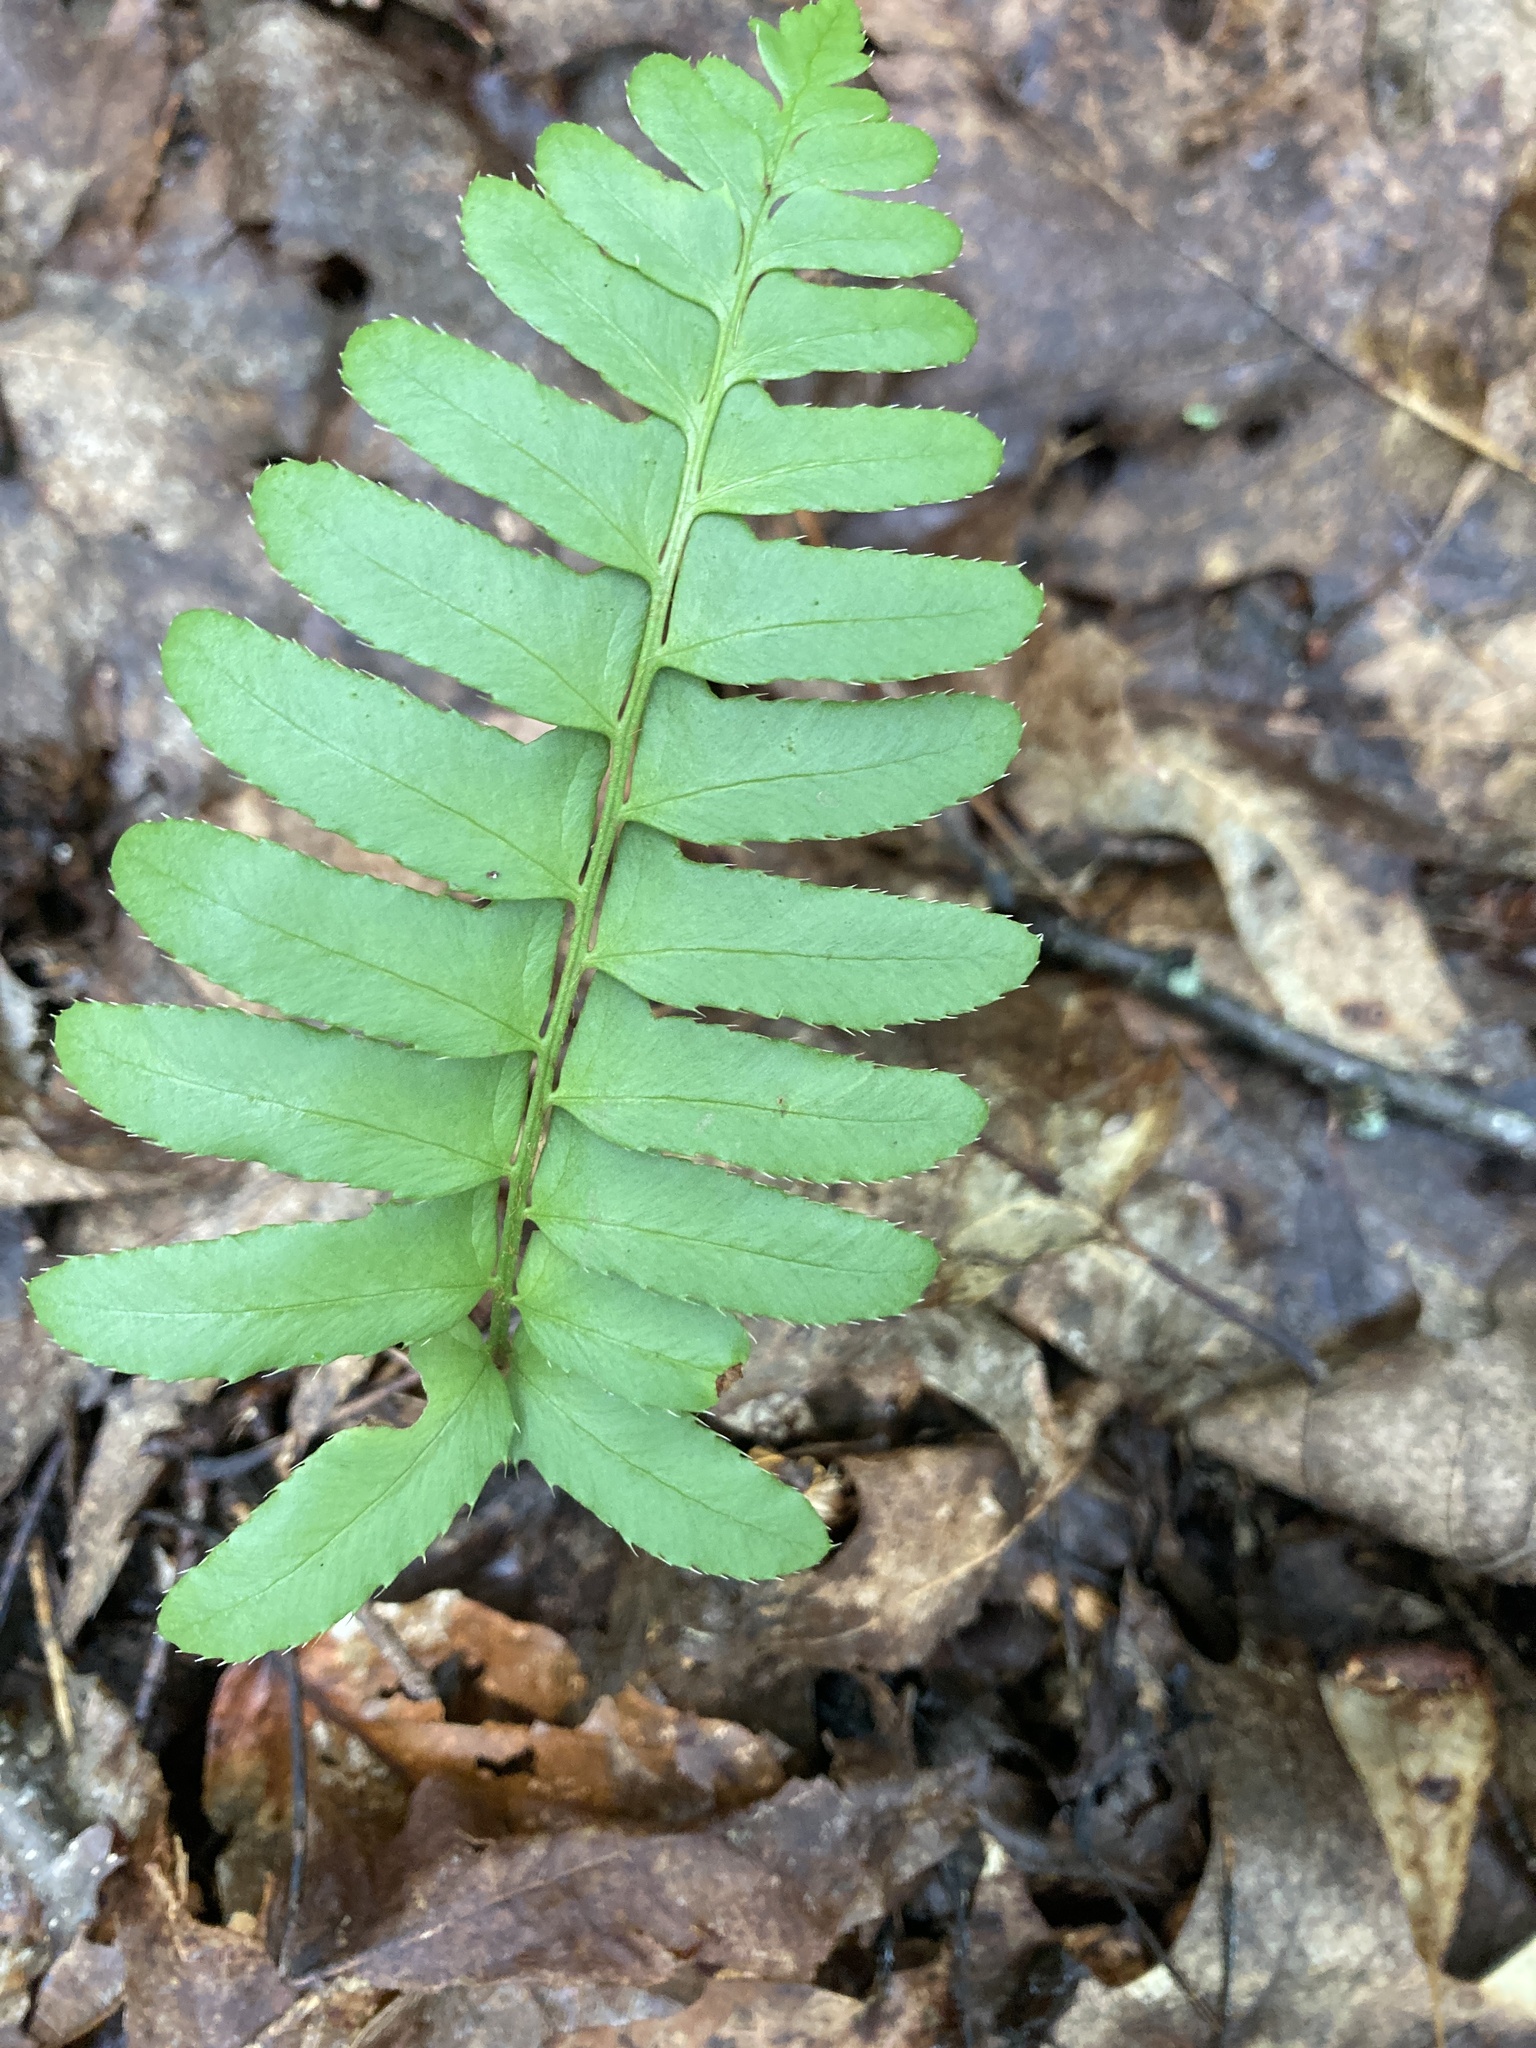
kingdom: Plantae
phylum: Tracheophyta
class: Polypodiopsida
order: Polypodiales
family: Dryopteridaceae
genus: Polystichum
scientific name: Polystichum acrostichoides
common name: Christmas fern
